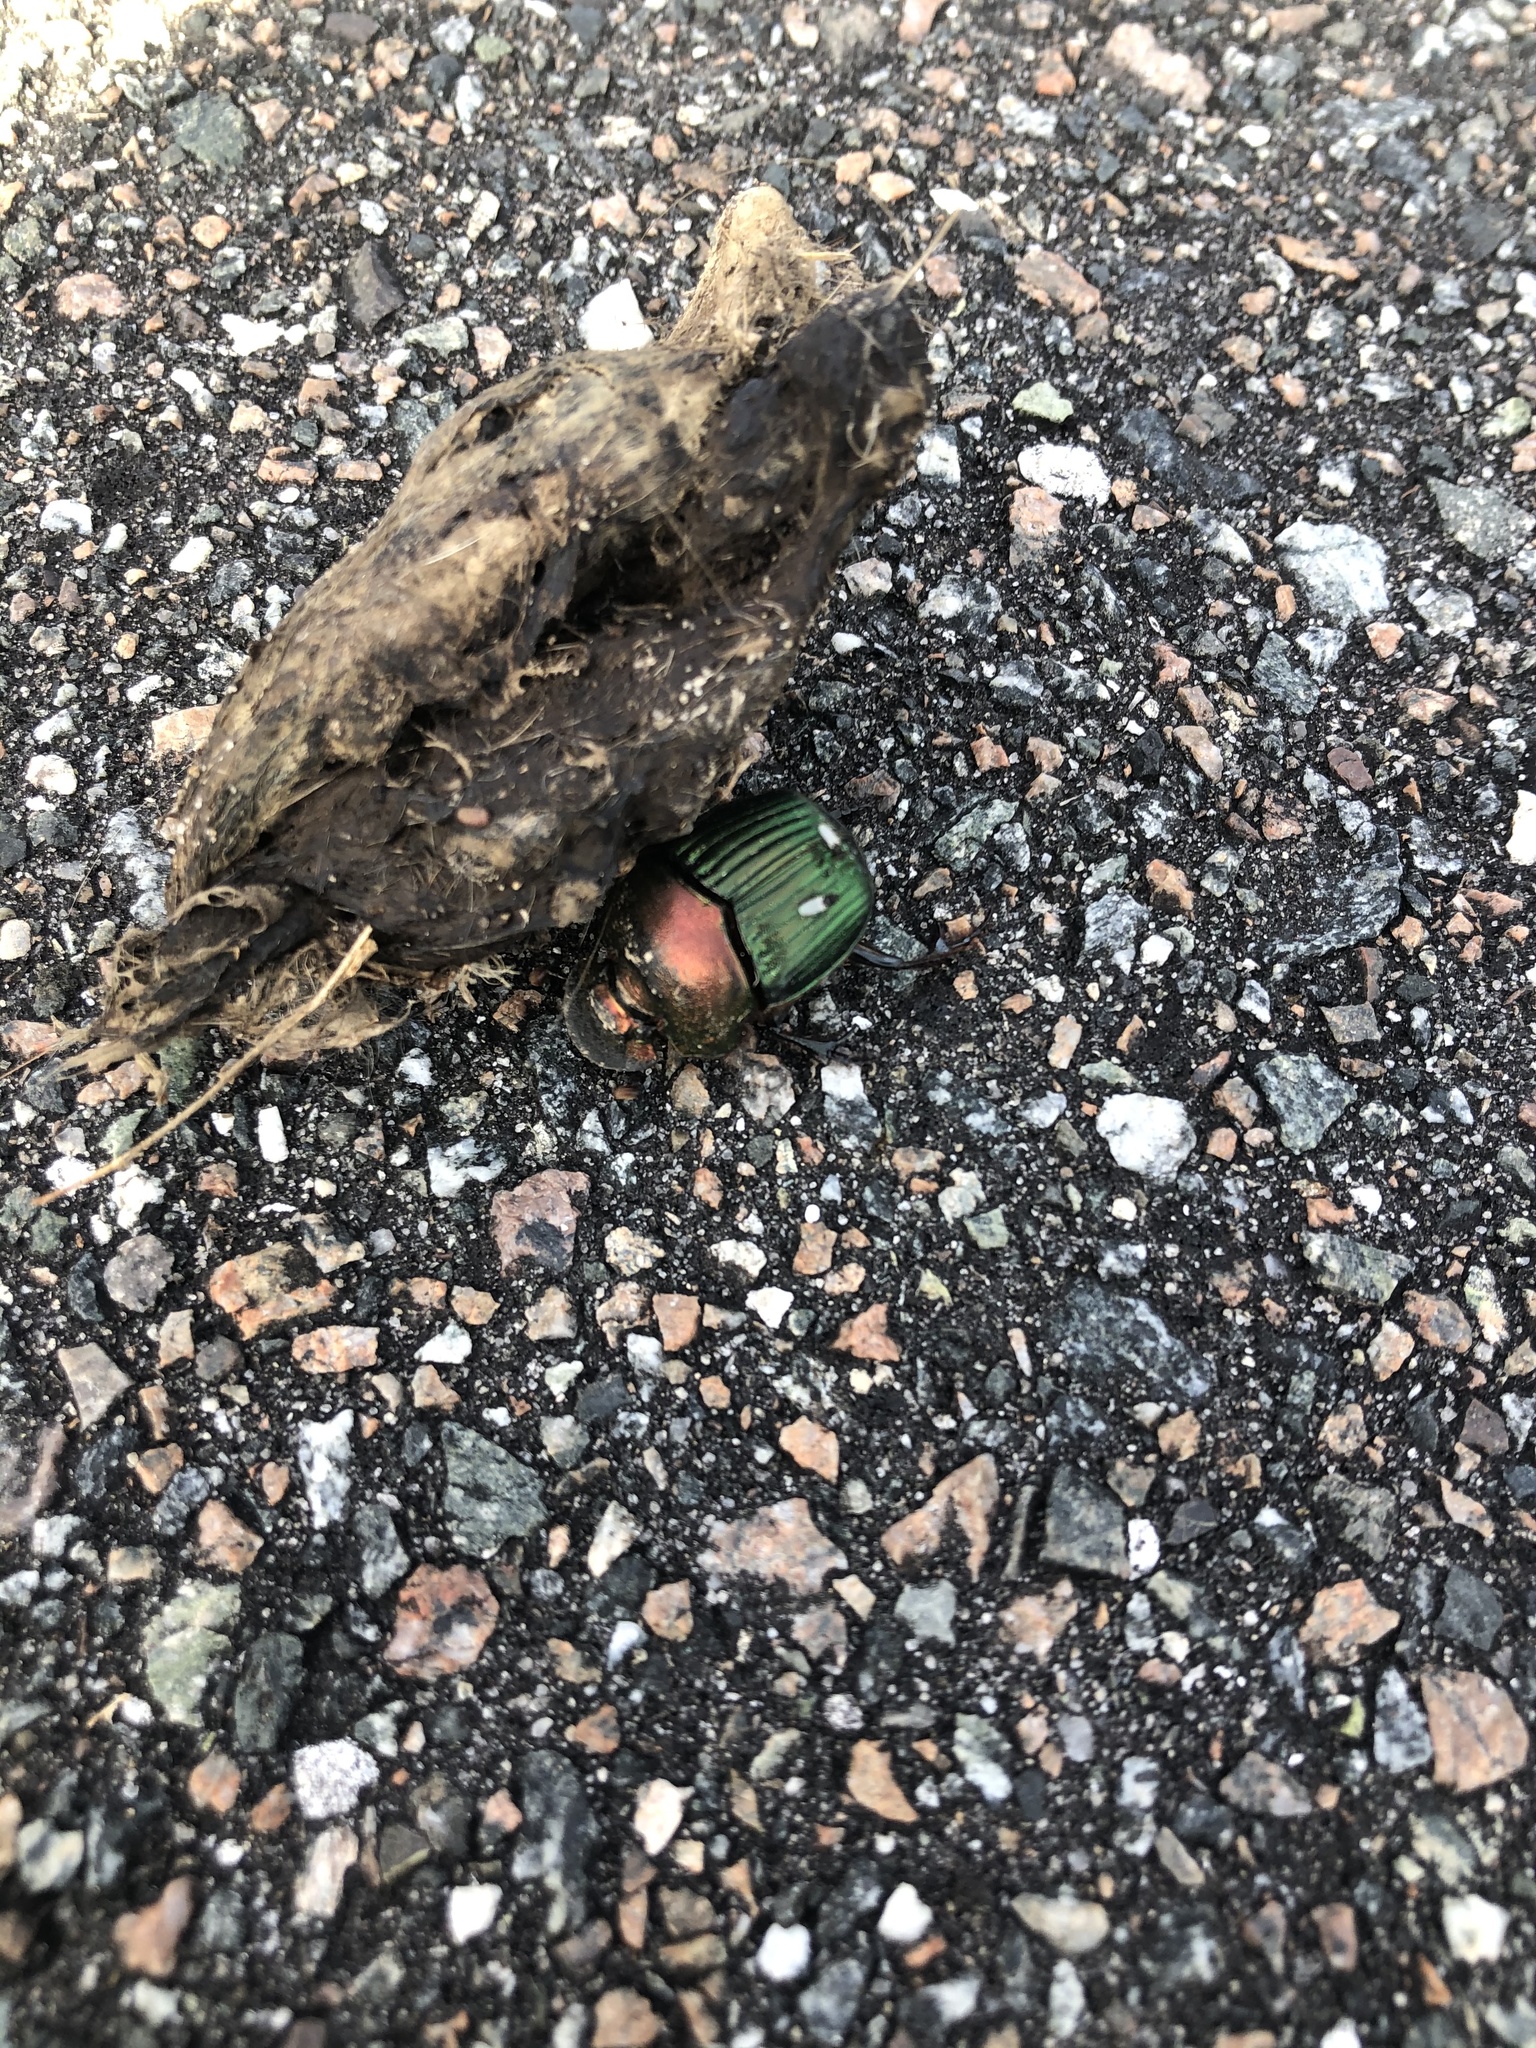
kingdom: Animalia
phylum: Arthropoda
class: Insecta
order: Coleoptera
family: Scarabaeidae
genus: Phanaeus
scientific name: Phanaeus igneus
